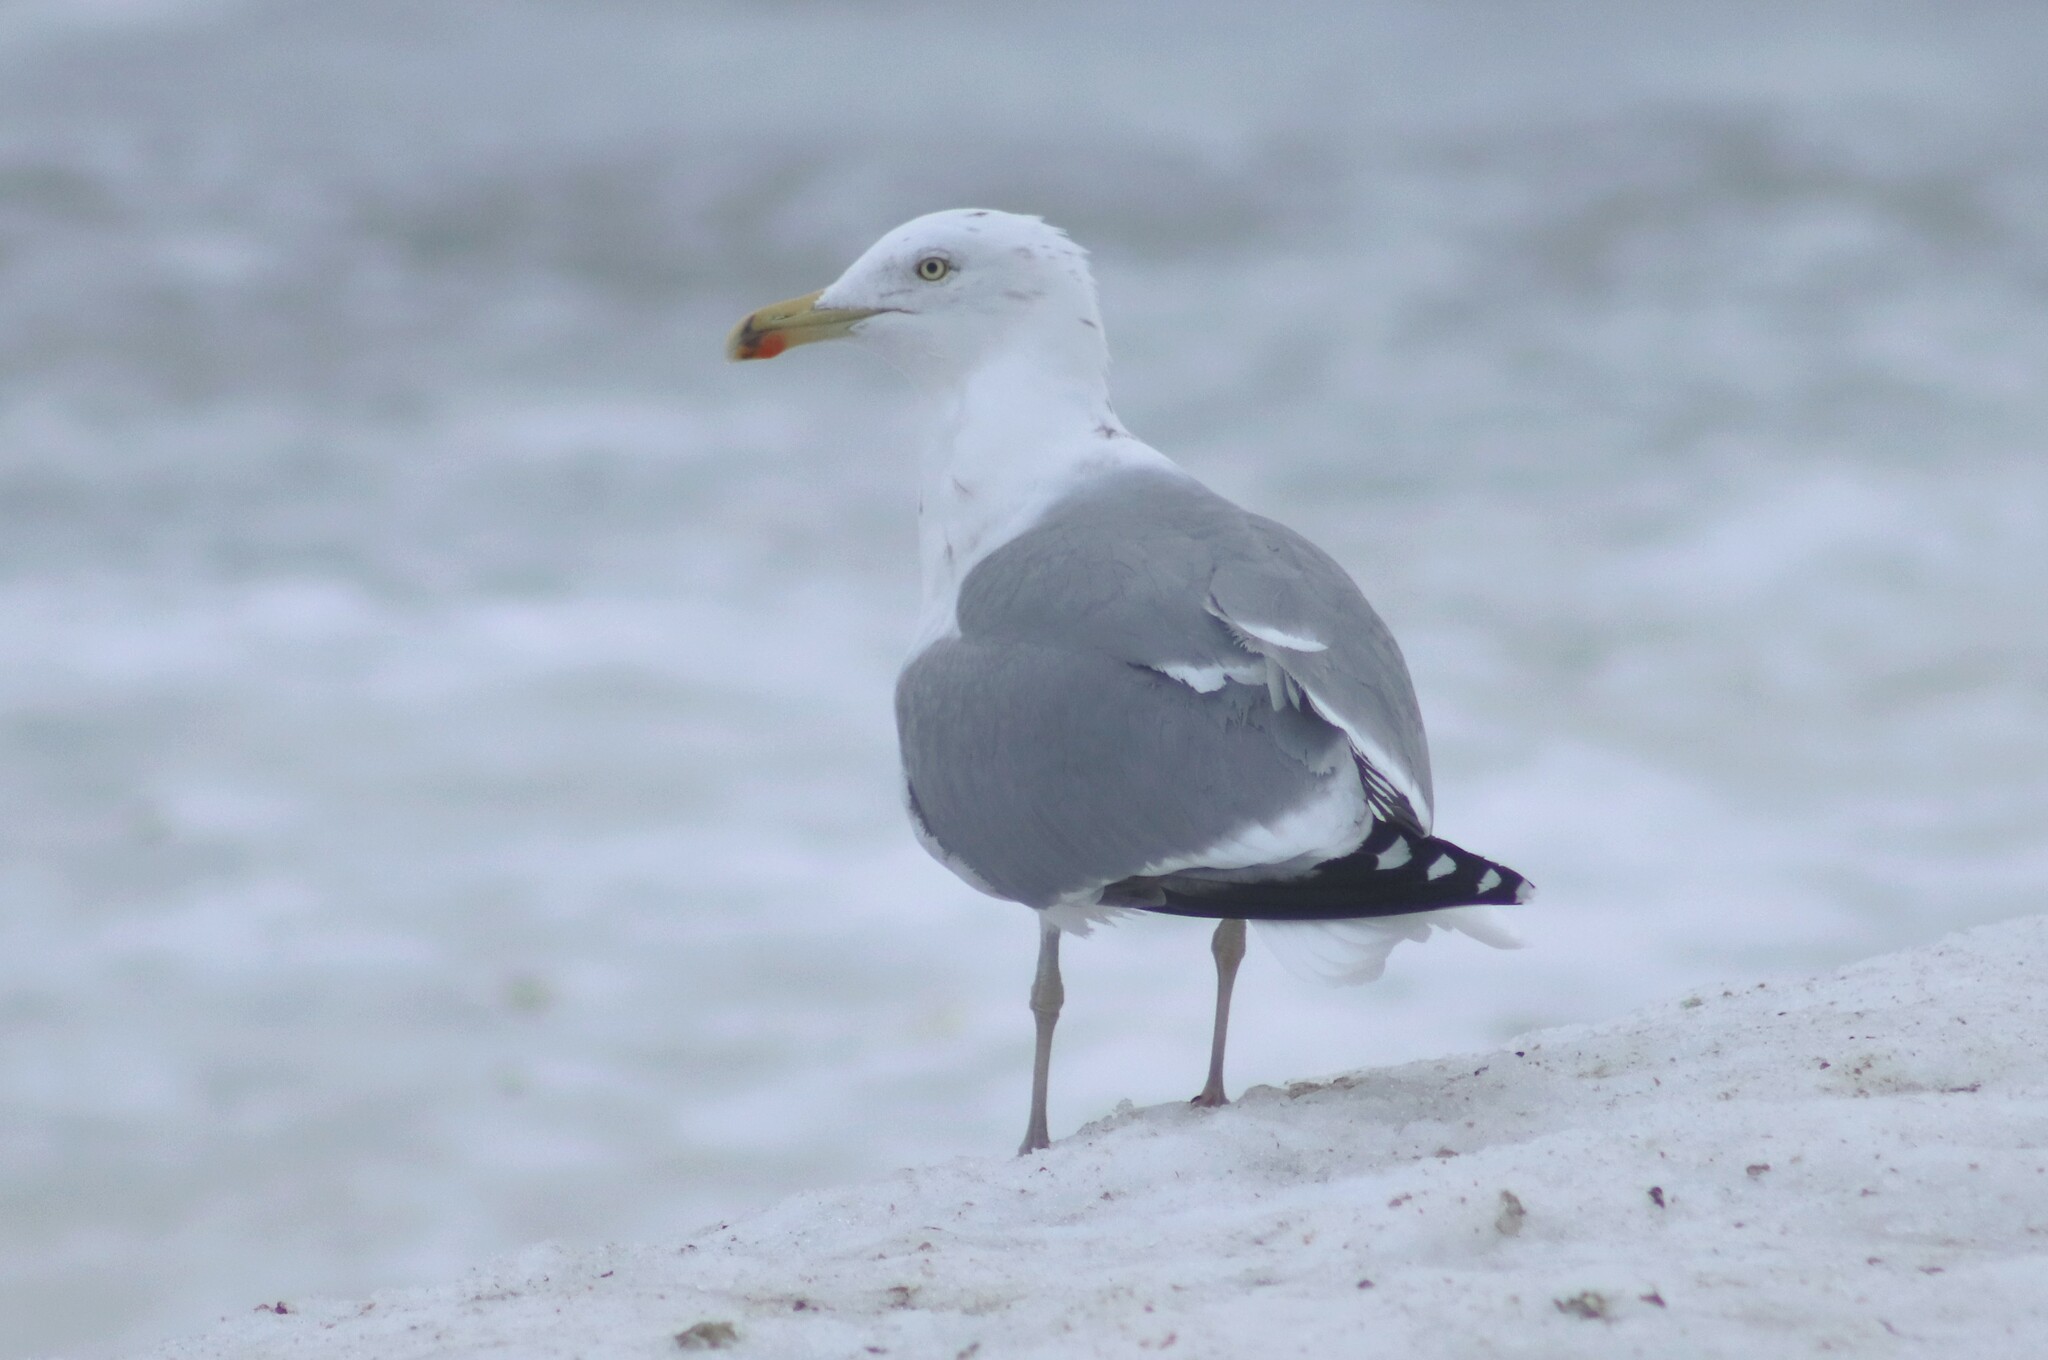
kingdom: Animalia
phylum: Chordata
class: Aves
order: Charadriiformes
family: Laridae
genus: Larus
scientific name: Larus argentatus
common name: Herring gull
